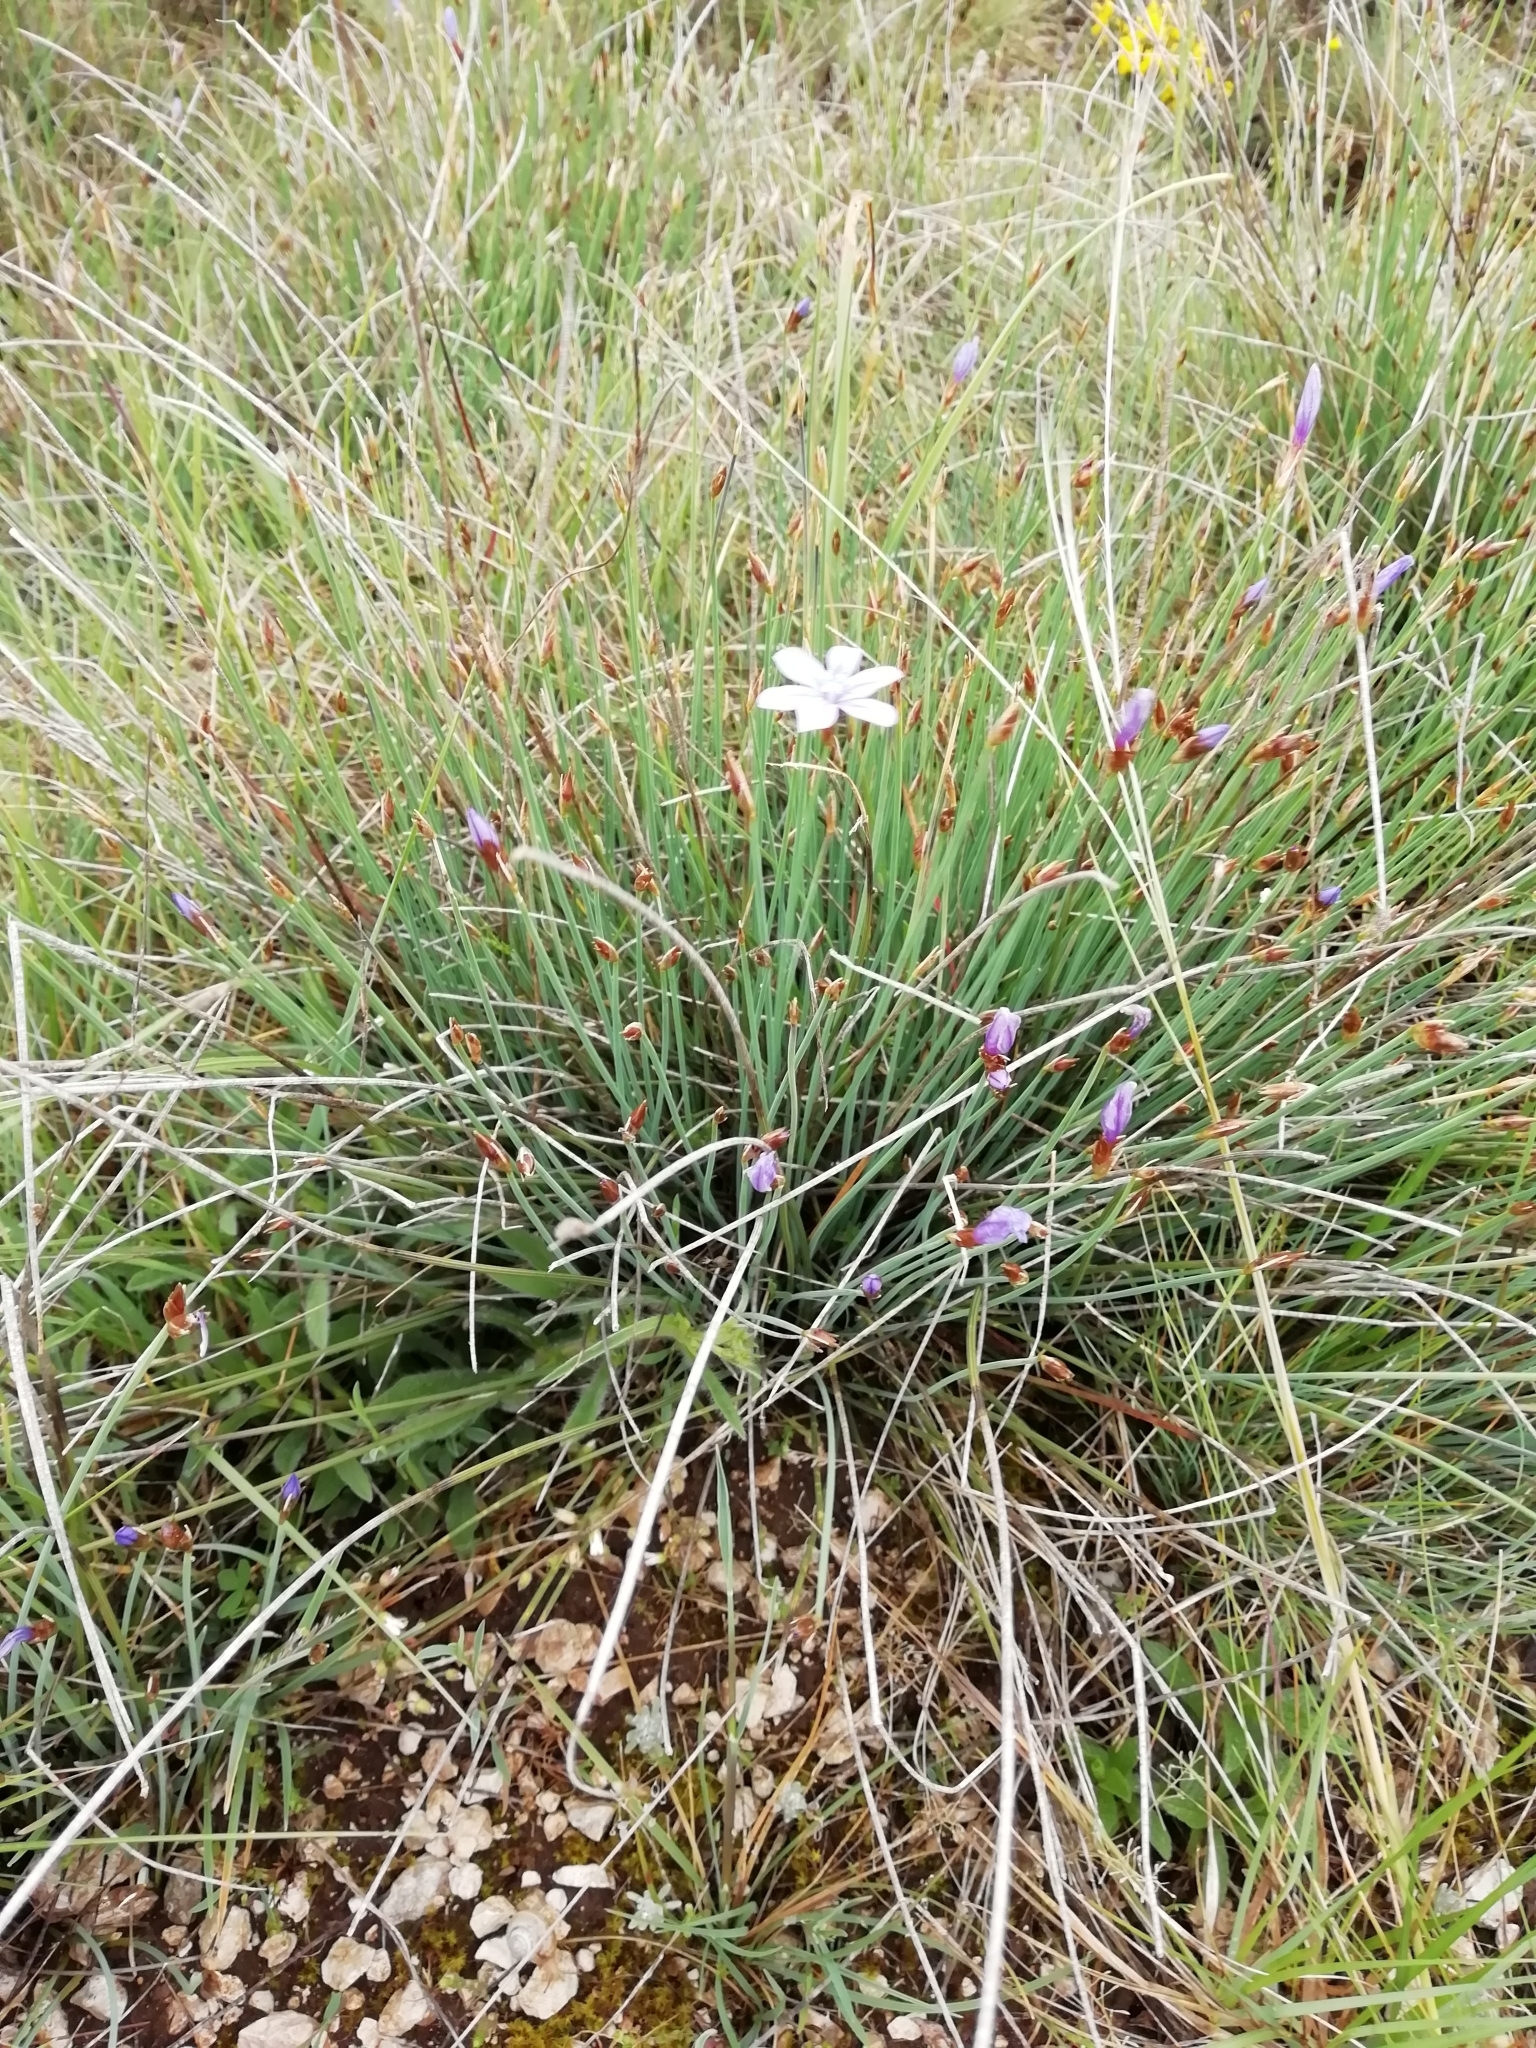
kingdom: Plantae
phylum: Tracheophyta
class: Liliopsida
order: Asparagales
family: Asparagaceae
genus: Aphyllanthes
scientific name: Aphyllanthes monspeliensis
